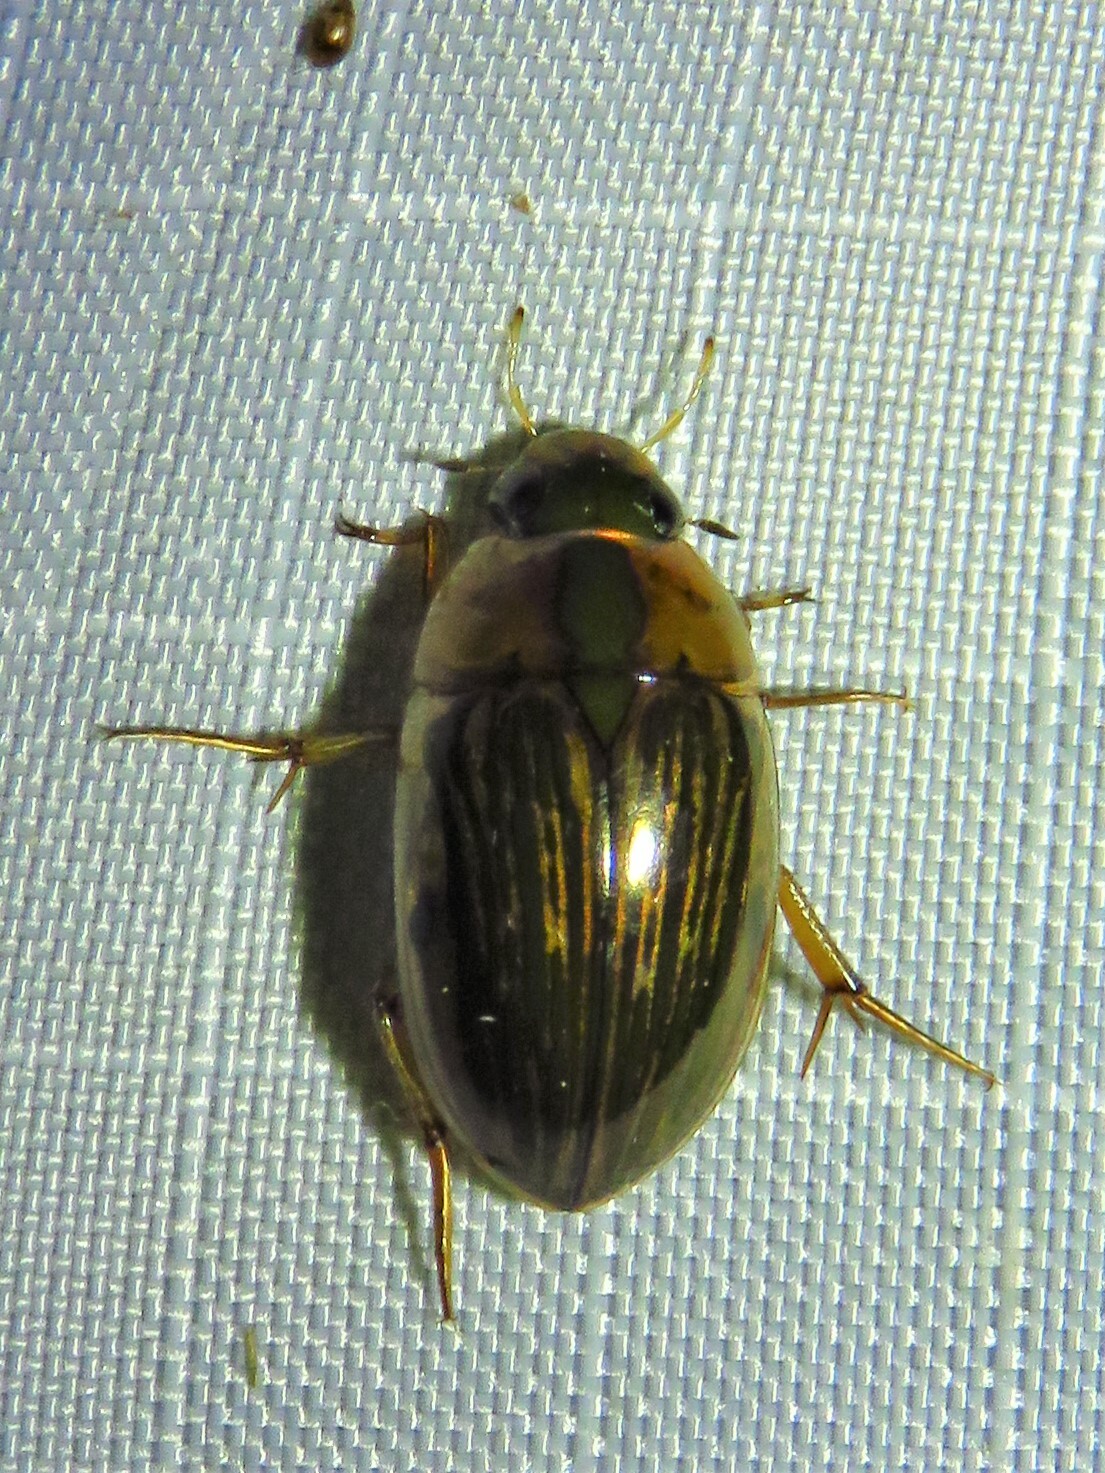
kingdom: Animalia
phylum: Arthropoda
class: Insecta
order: Coleoptera
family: Hydrophilidae
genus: Tropisternus
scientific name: Tropisternus collaris
